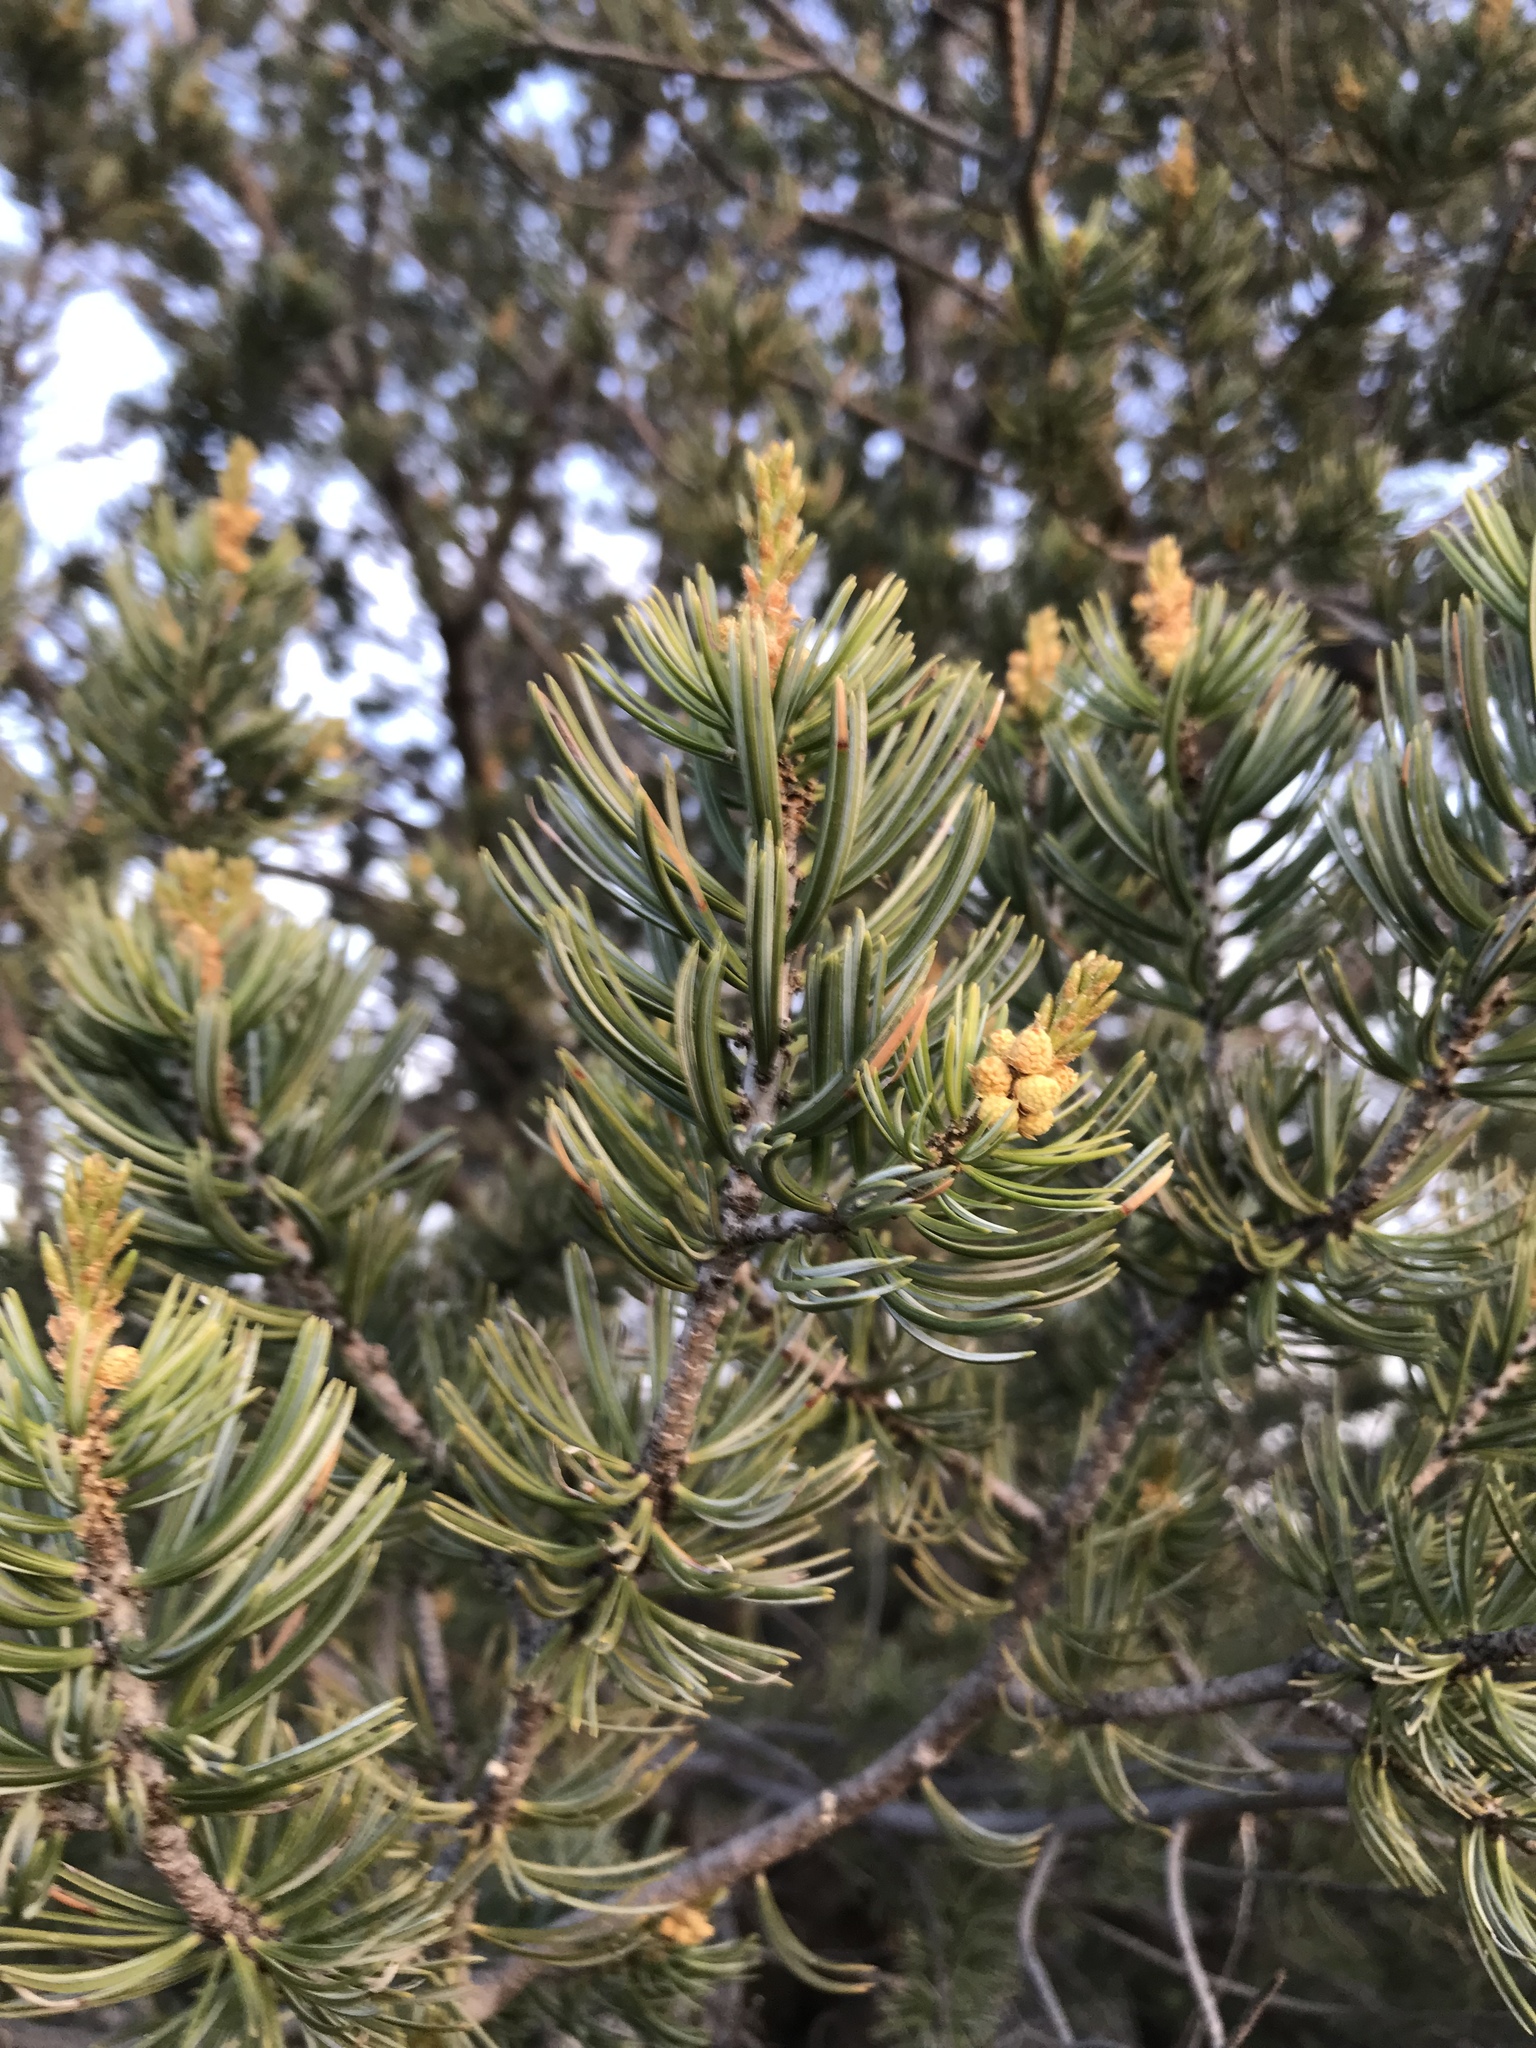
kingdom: Plantae
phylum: Tracheophyta
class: Pinopsida
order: Pinales
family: Pinaceae
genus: Pinus
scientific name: Pinus quadrifolia
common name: Parry pinyon
